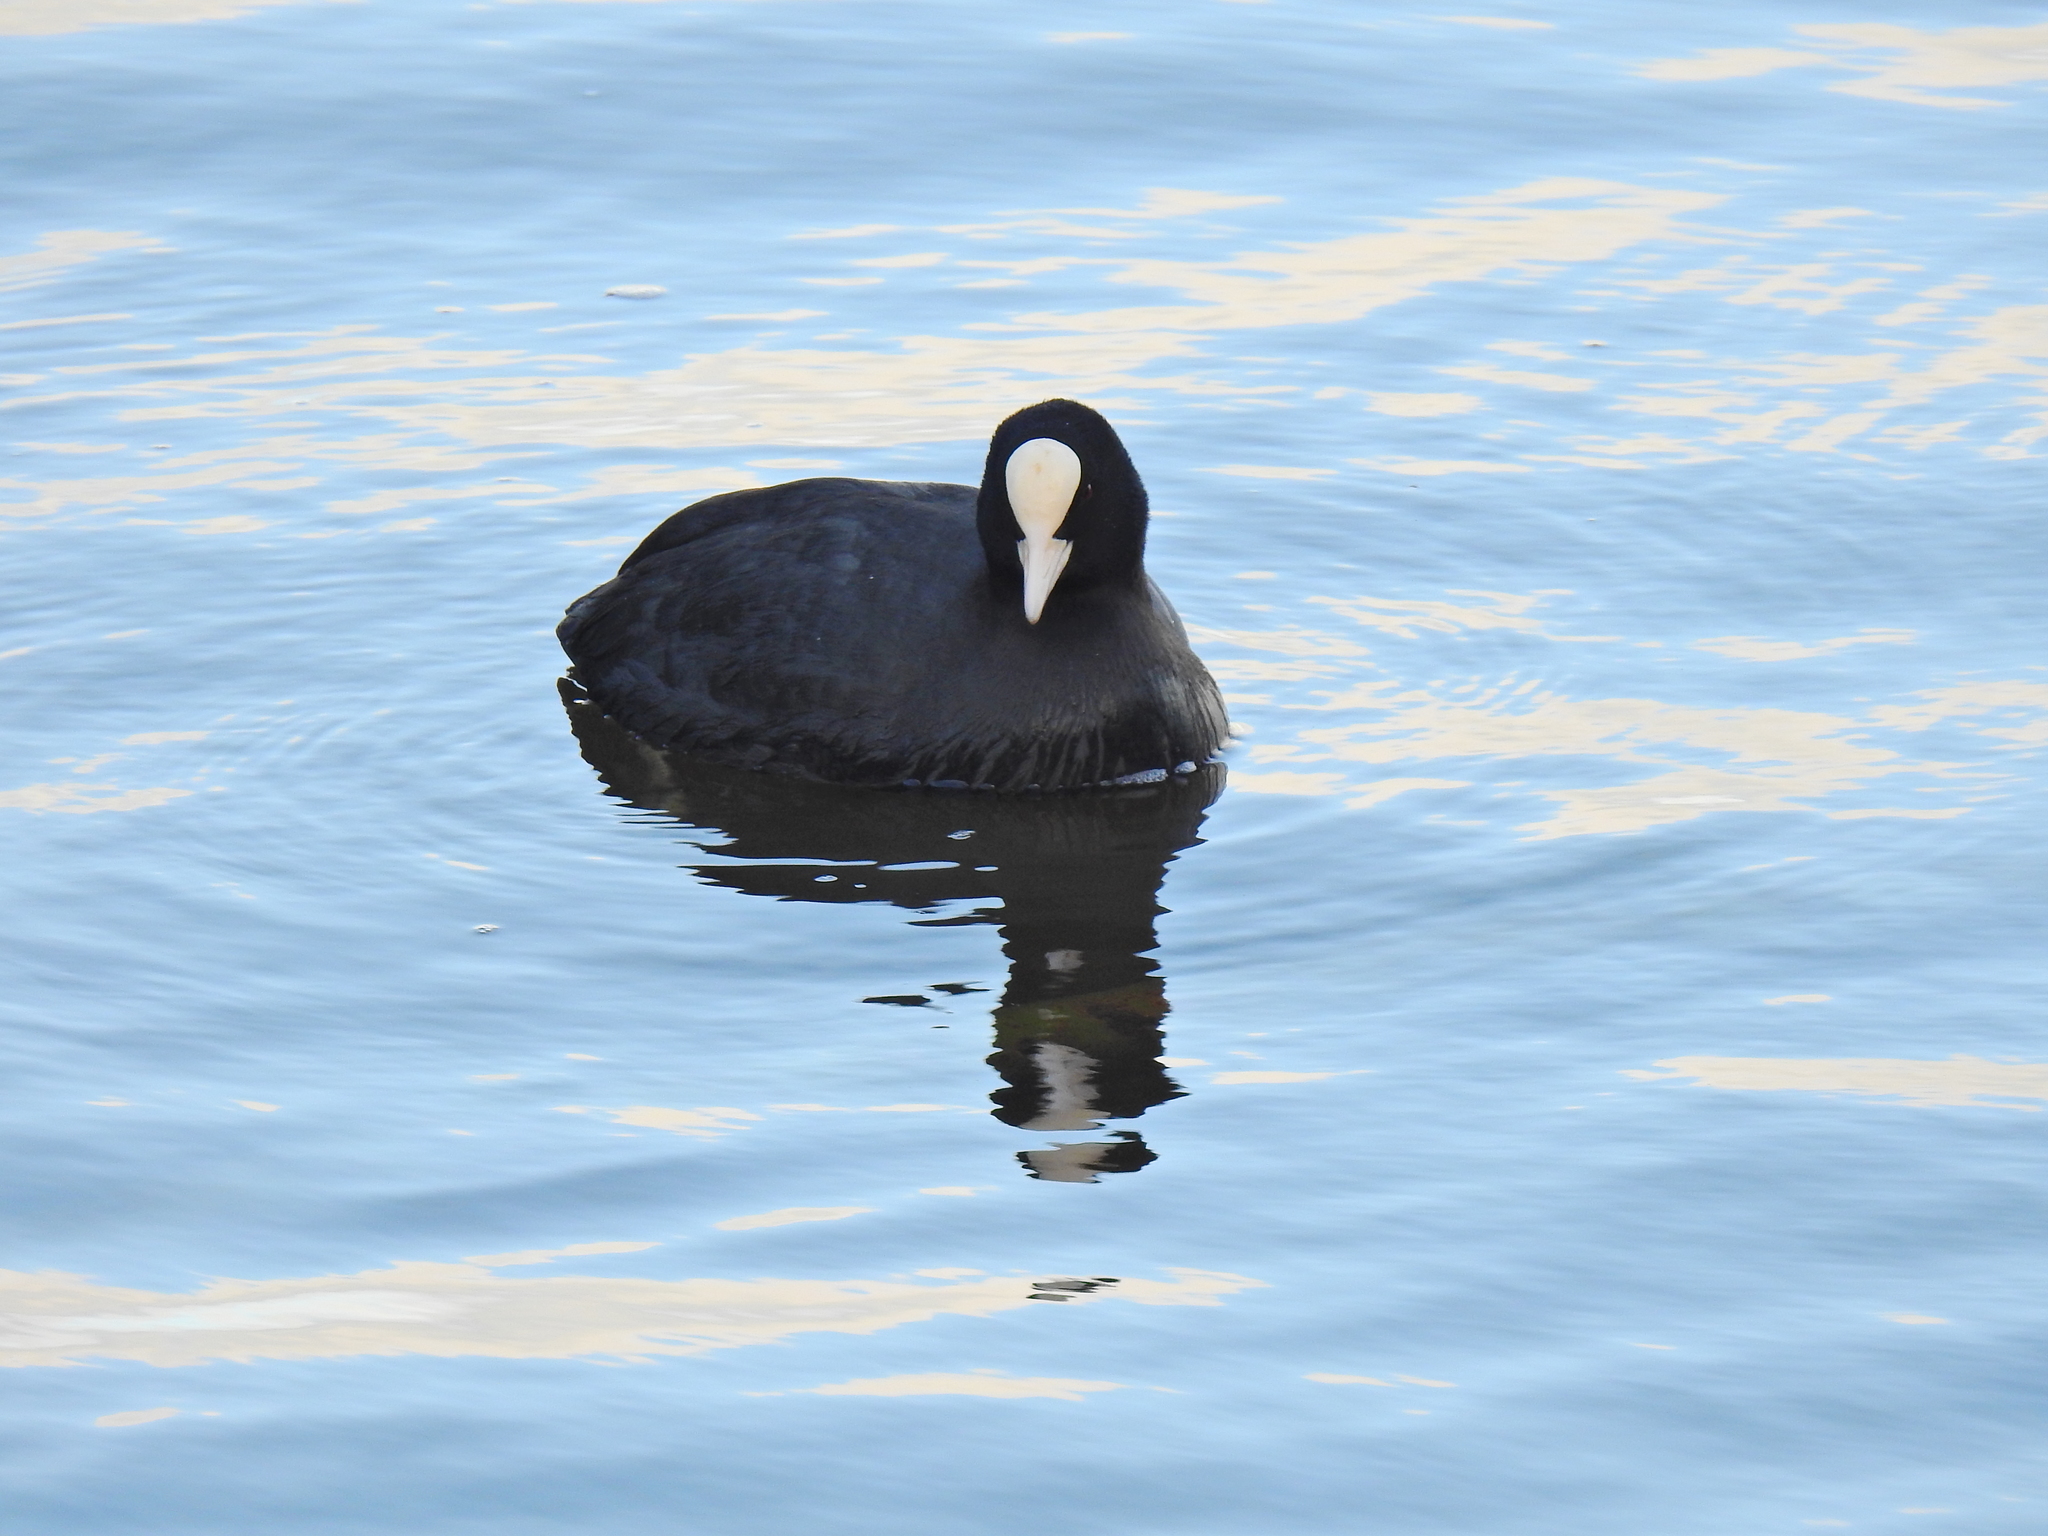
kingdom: Animalia
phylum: Chordata
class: Aves
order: Gruiformes
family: Rallidae
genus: Fulica
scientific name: Fulica atra
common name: Eurasian coot
